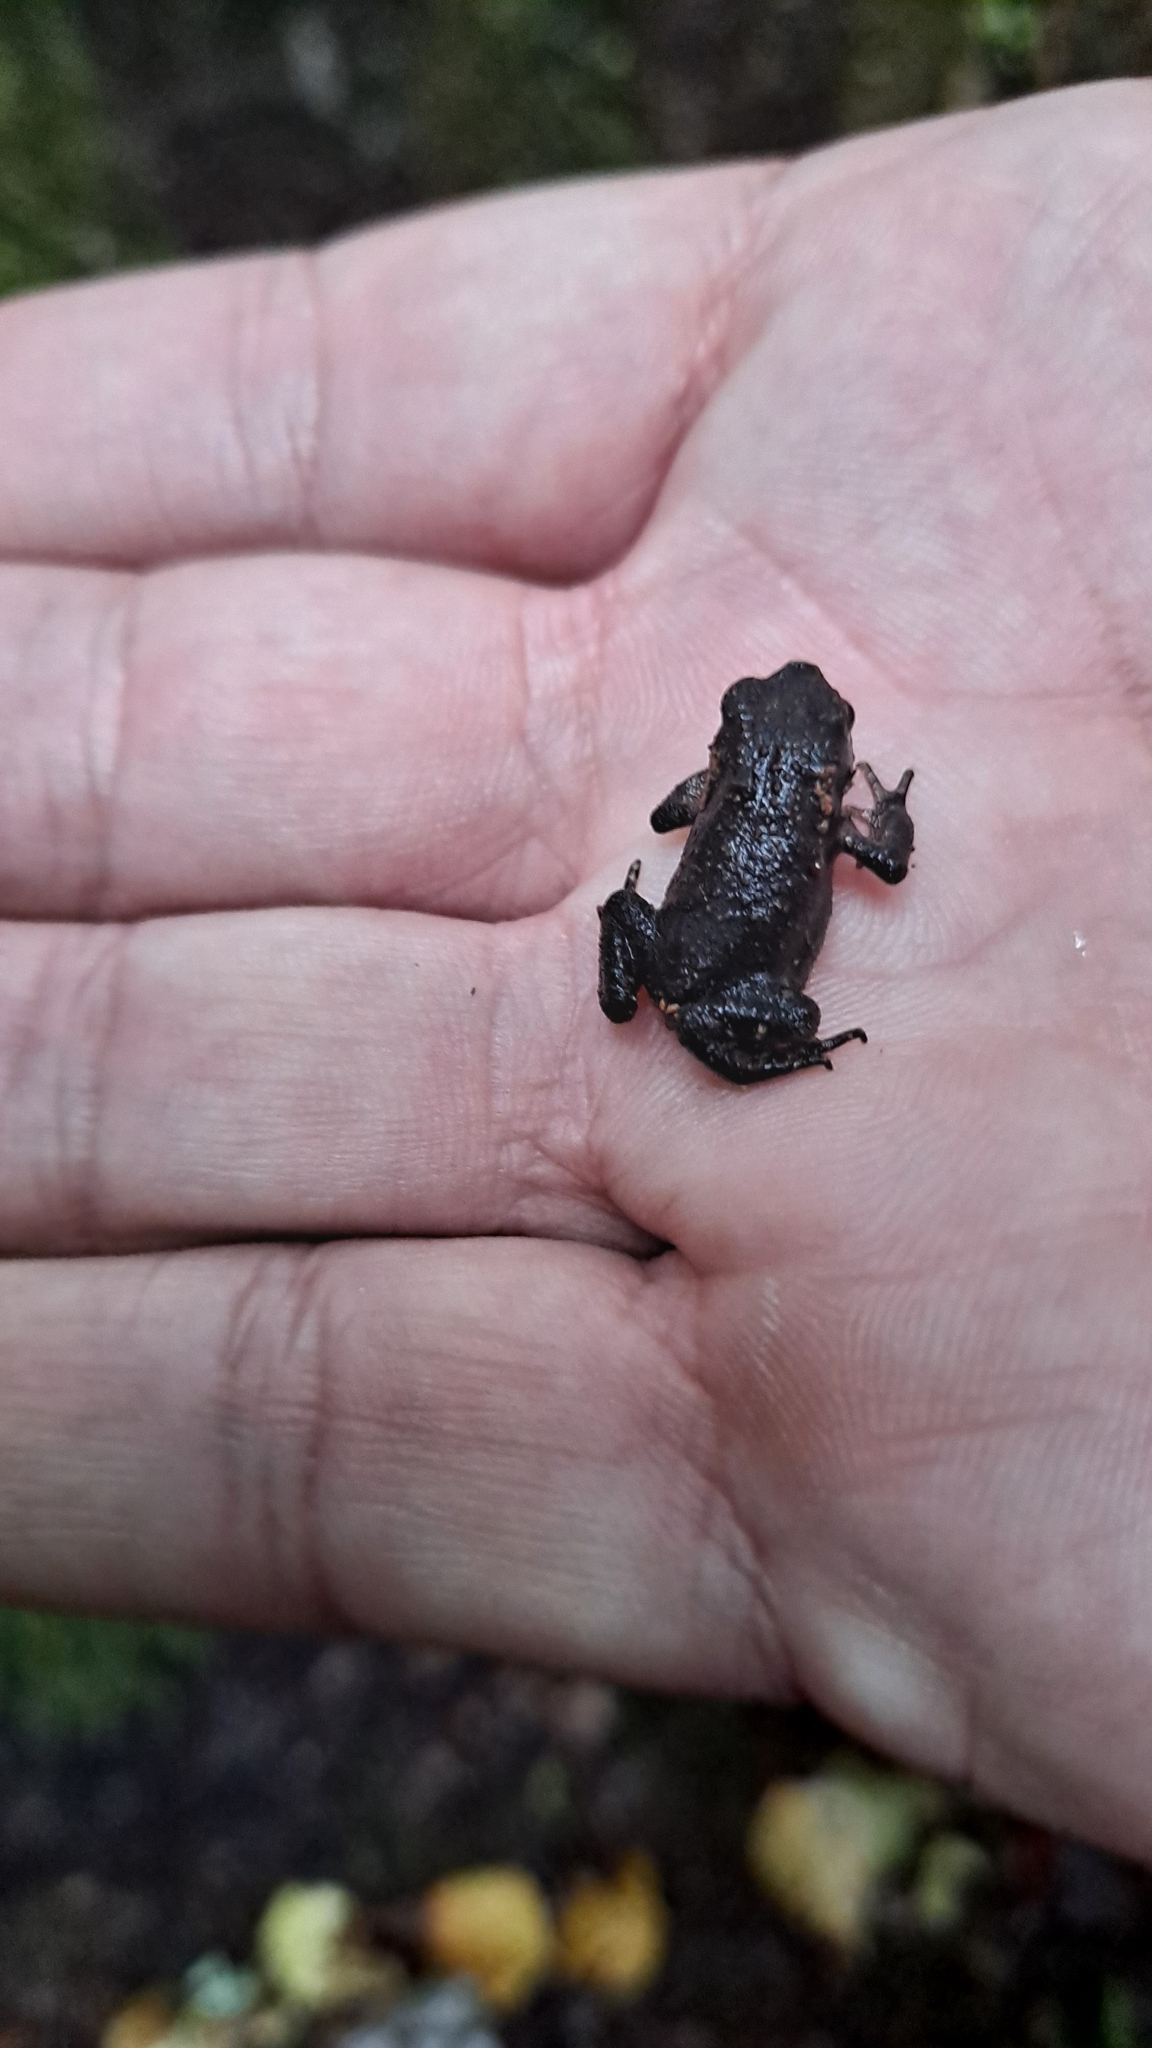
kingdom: Animalia
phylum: Chordata
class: Amphibia
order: Anura
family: Bufonidae
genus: Bufo
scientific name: Bufo spinosus
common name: Western common toad
